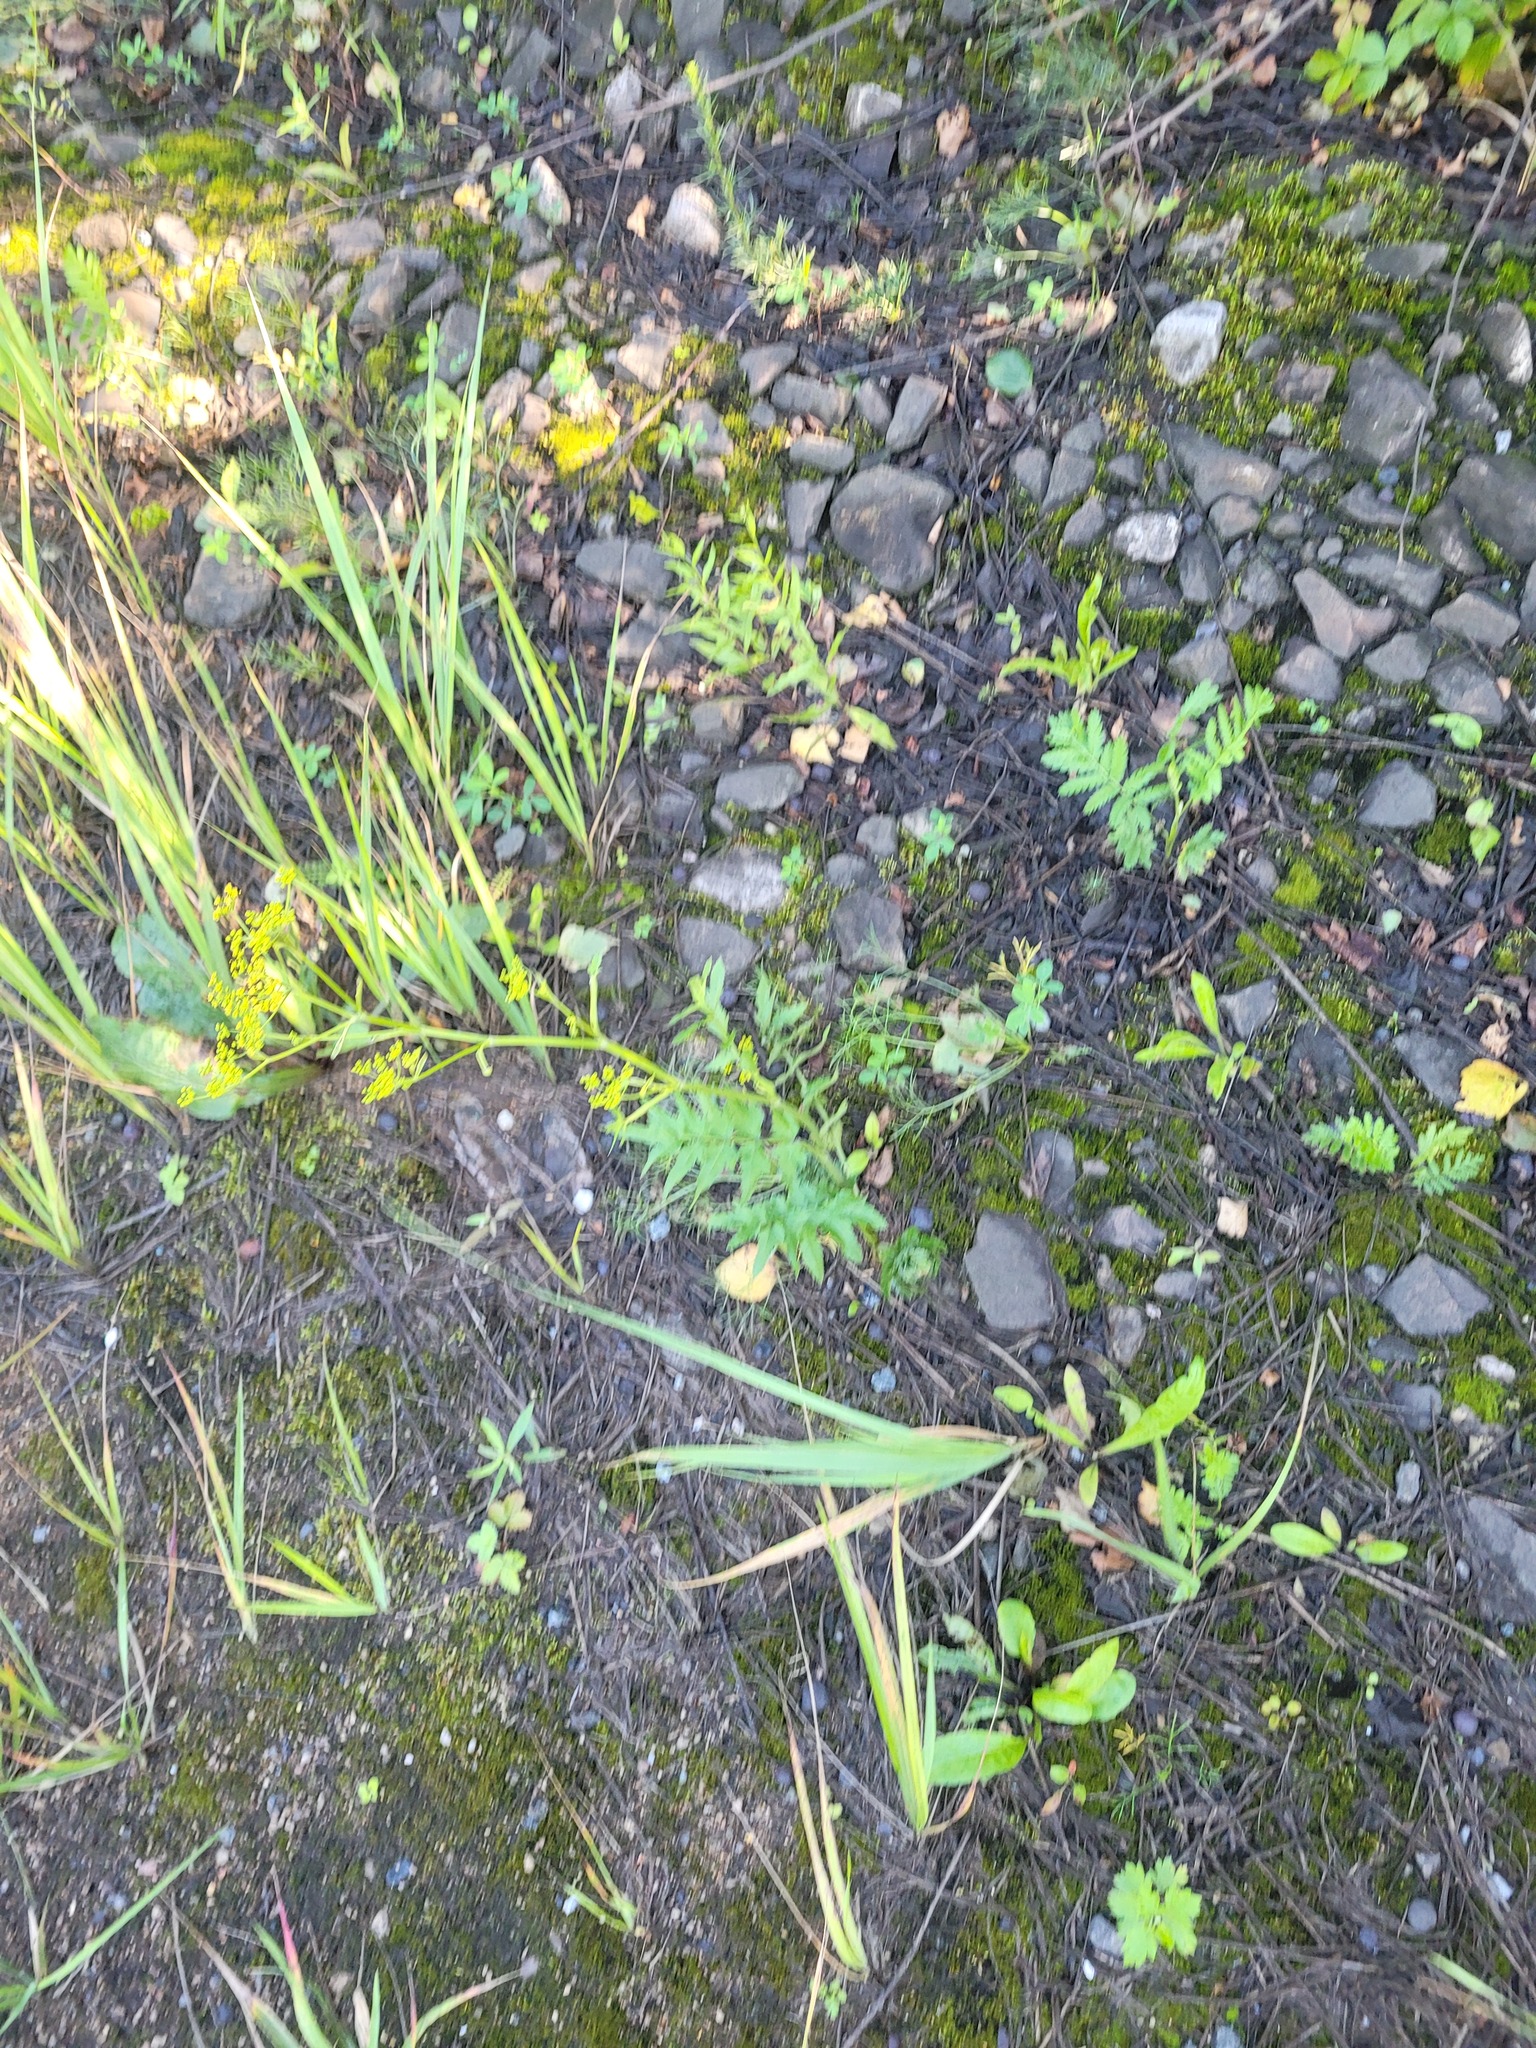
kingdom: Plantae
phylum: Tracheophyta
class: Magnoliopsida
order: Apiales
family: Apiaceae
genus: Pastinaca
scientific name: Pastinaca sativa
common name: Wild parsnip
